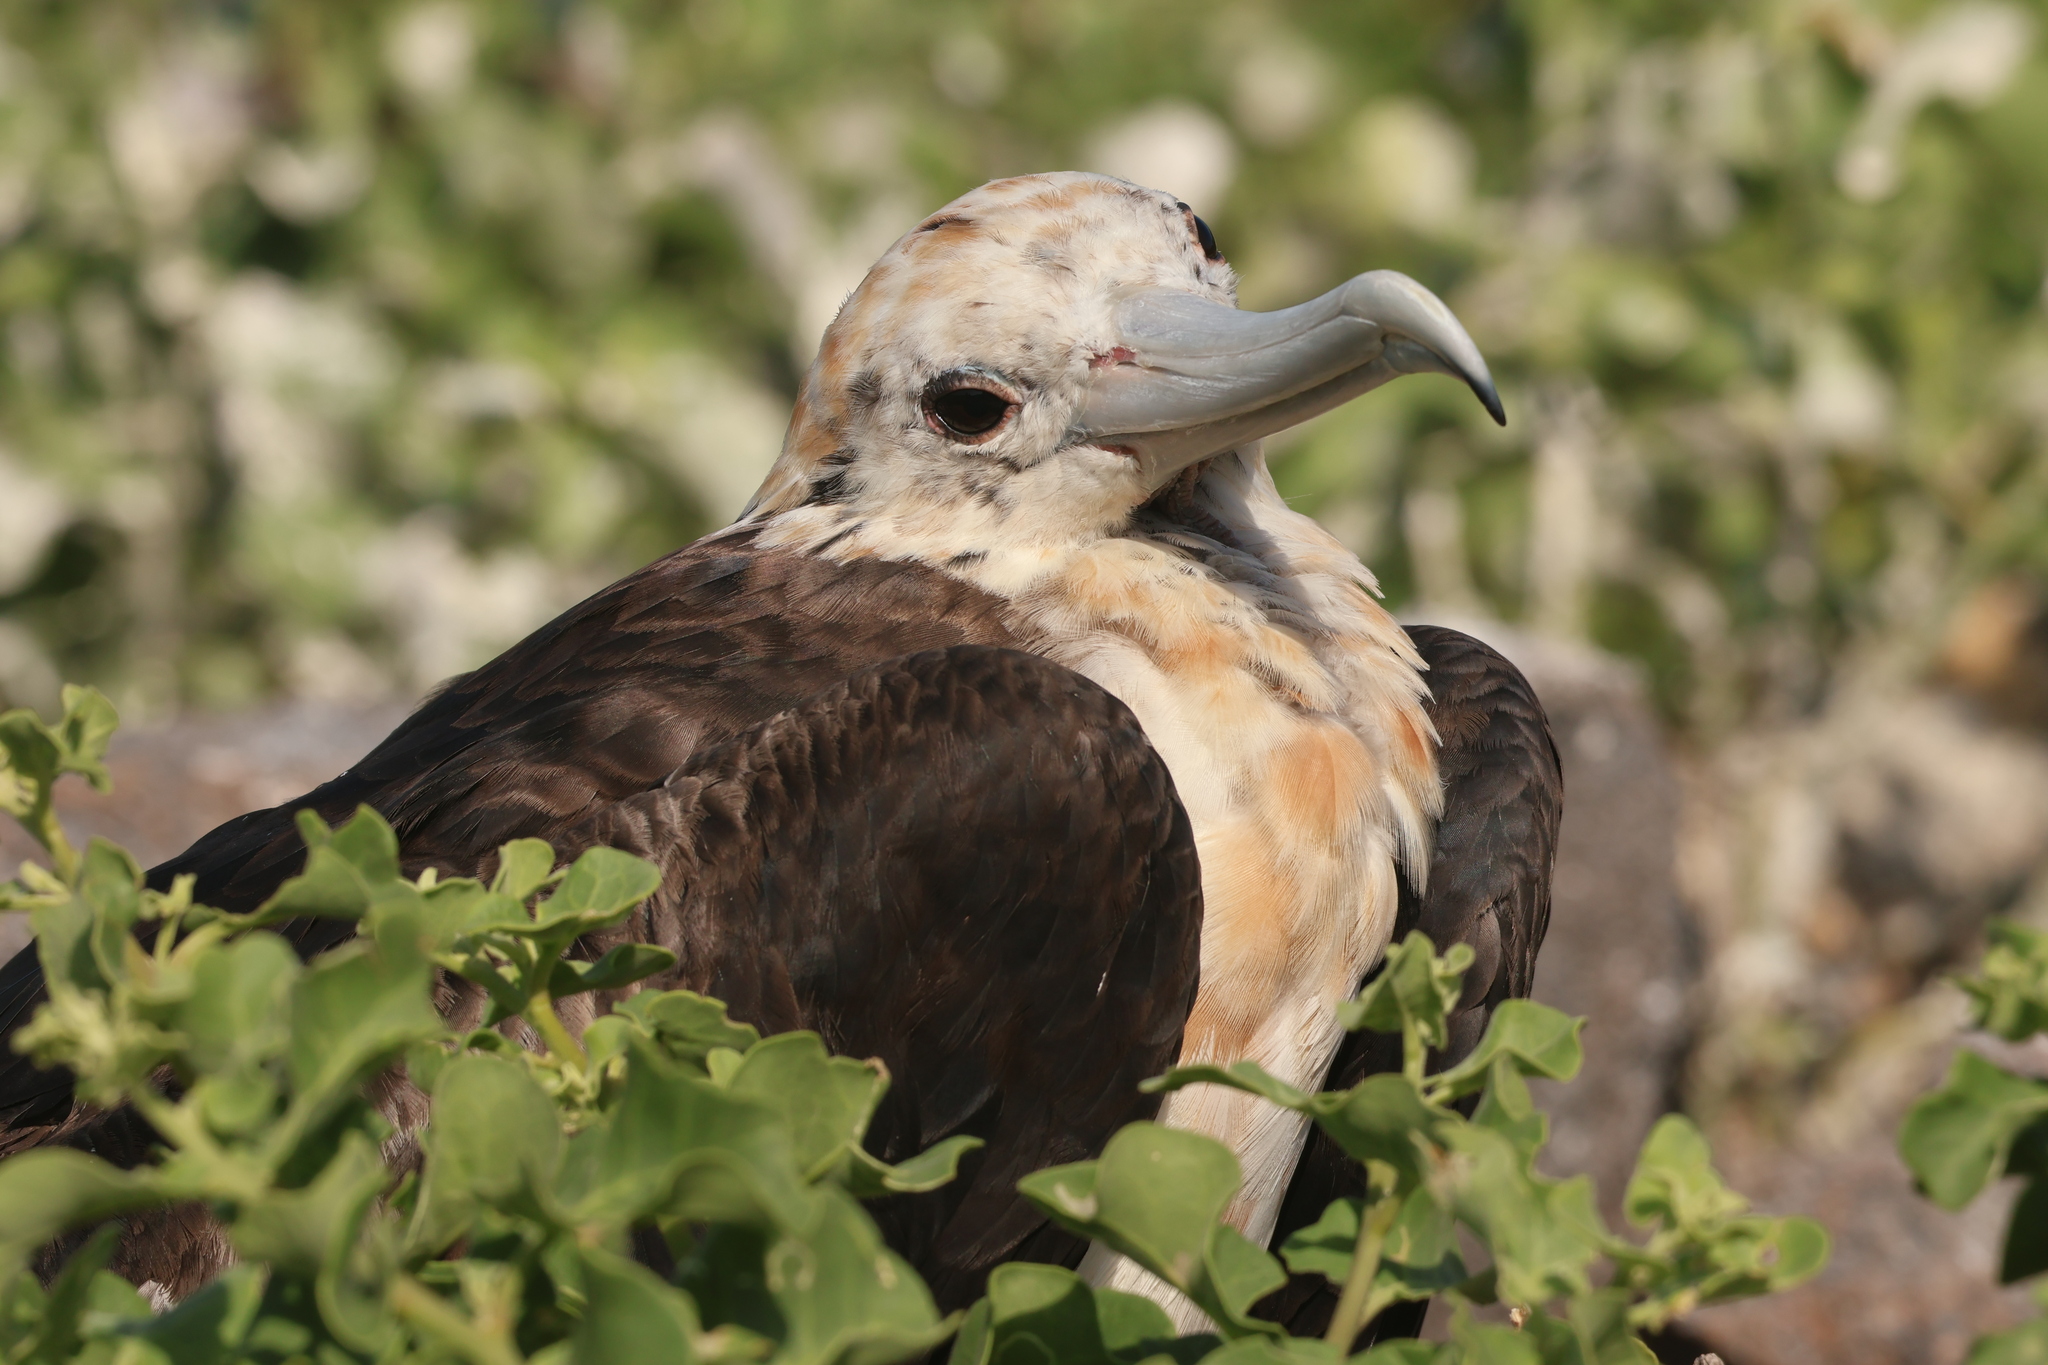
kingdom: Animalia
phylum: Chordata
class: Aves
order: Suliformes
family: Fregatidae
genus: Fregata
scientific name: Fregata minor
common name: Great frigatebird
